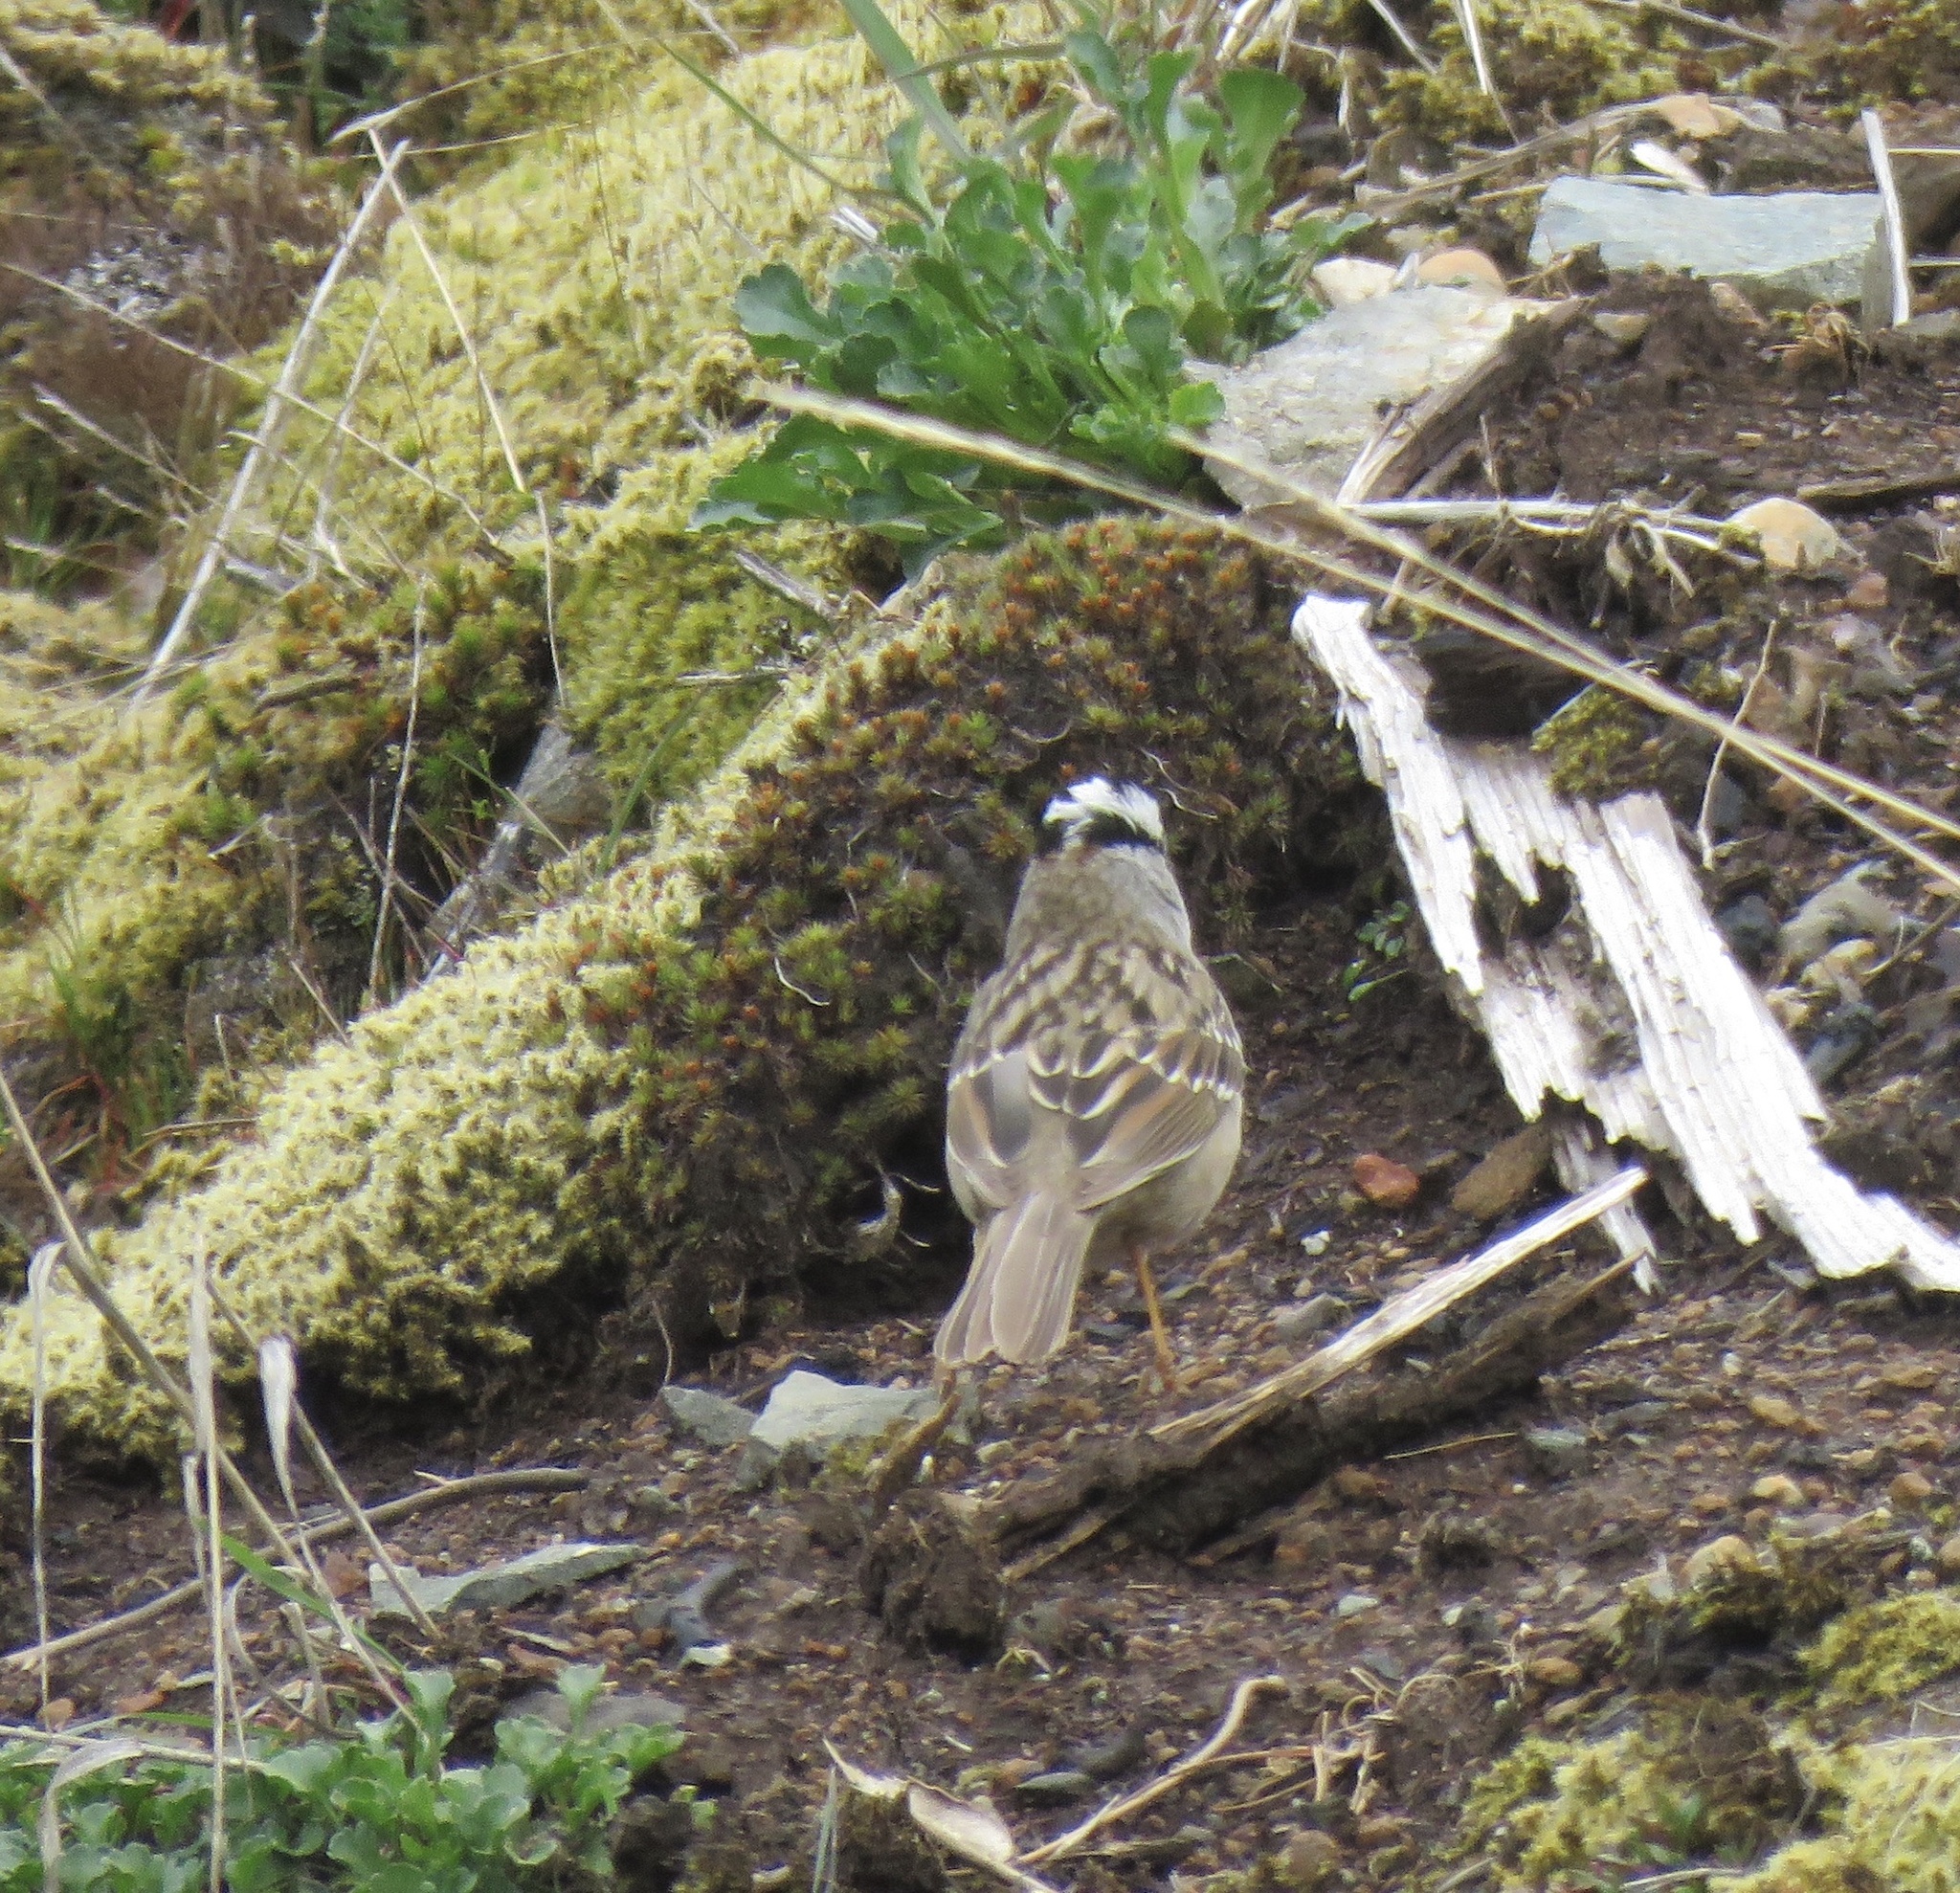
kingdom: Animalia
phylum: Chordata
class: Aves
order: Passeriformes
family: Passerellidae
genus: Zonotrichia
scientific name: Zonotrichia leucophrys
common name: White-crowned sparrow
